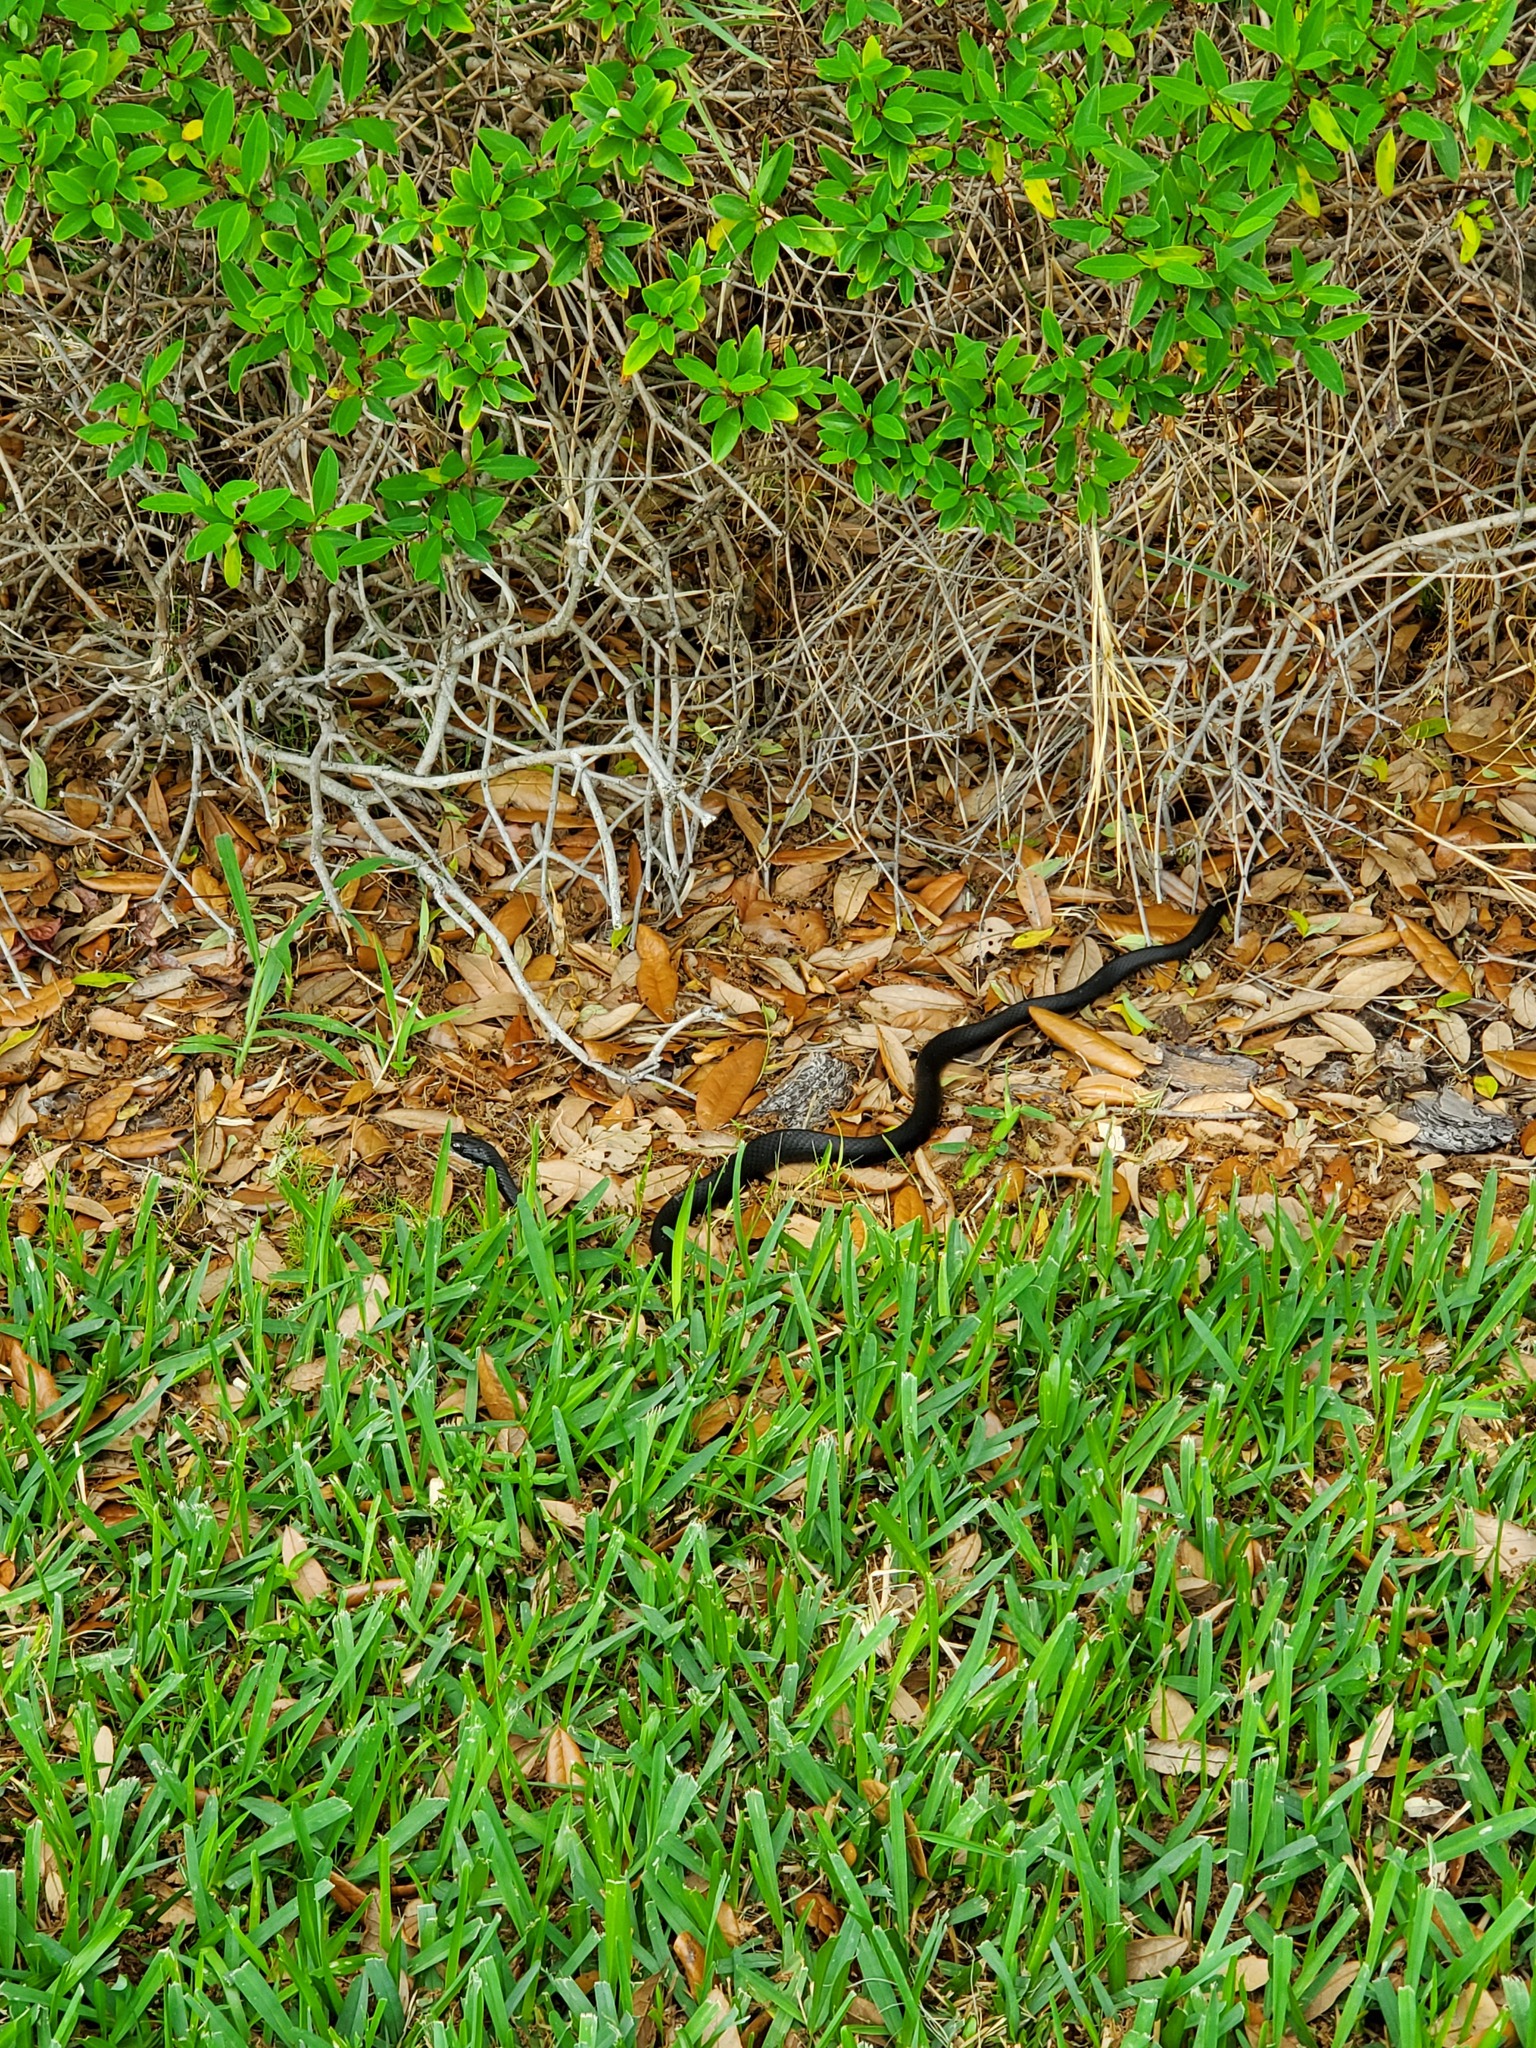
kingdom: Animalia
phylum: Chordata
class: Squamata
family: Colubridae
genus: Coluber
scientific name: Coluber constrictor
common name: Eastern racer
